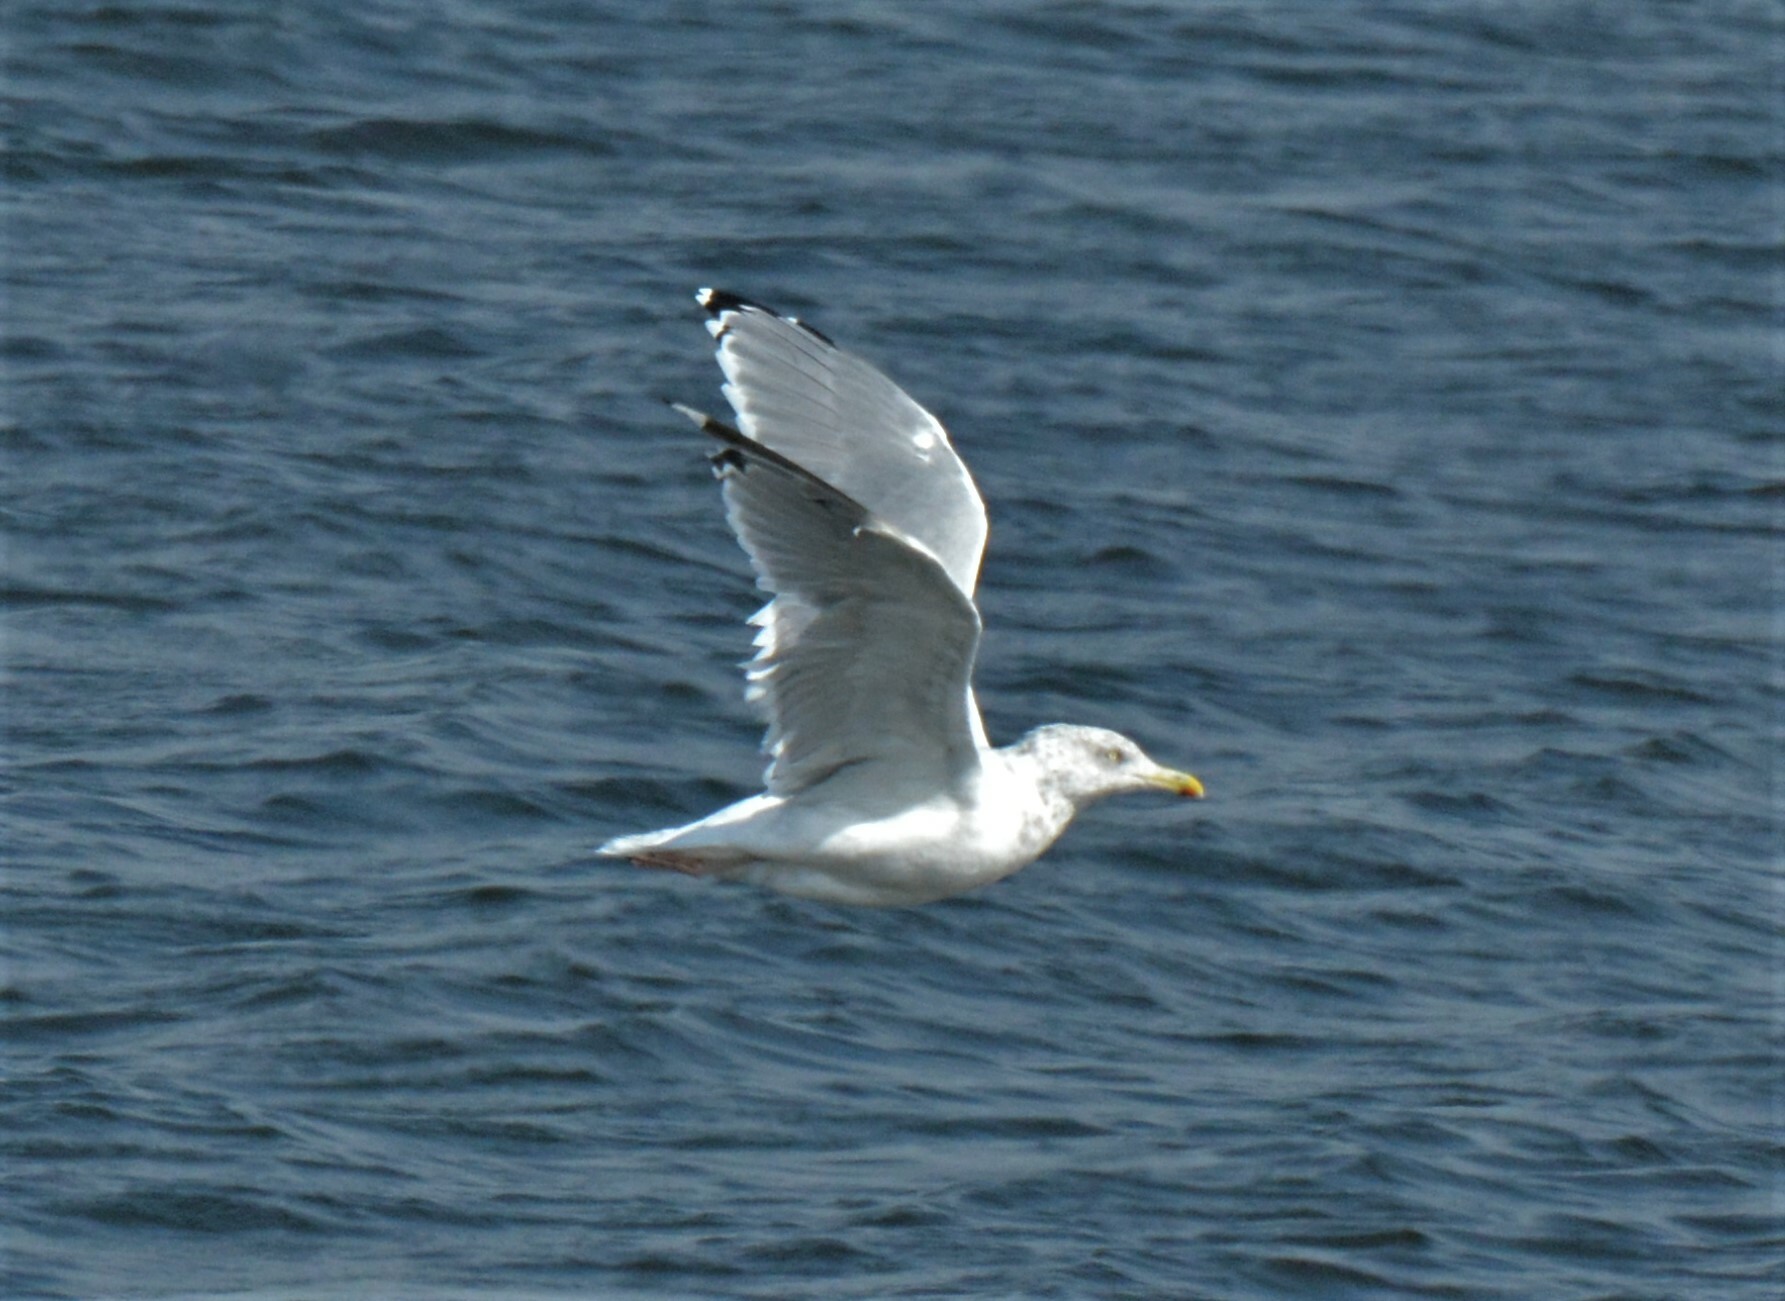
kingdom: Animalia
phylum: Chordata
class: Aves
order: Charadriiformes
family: Laridae
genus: Larus
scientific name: Larus argentatus
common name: Herring gull
